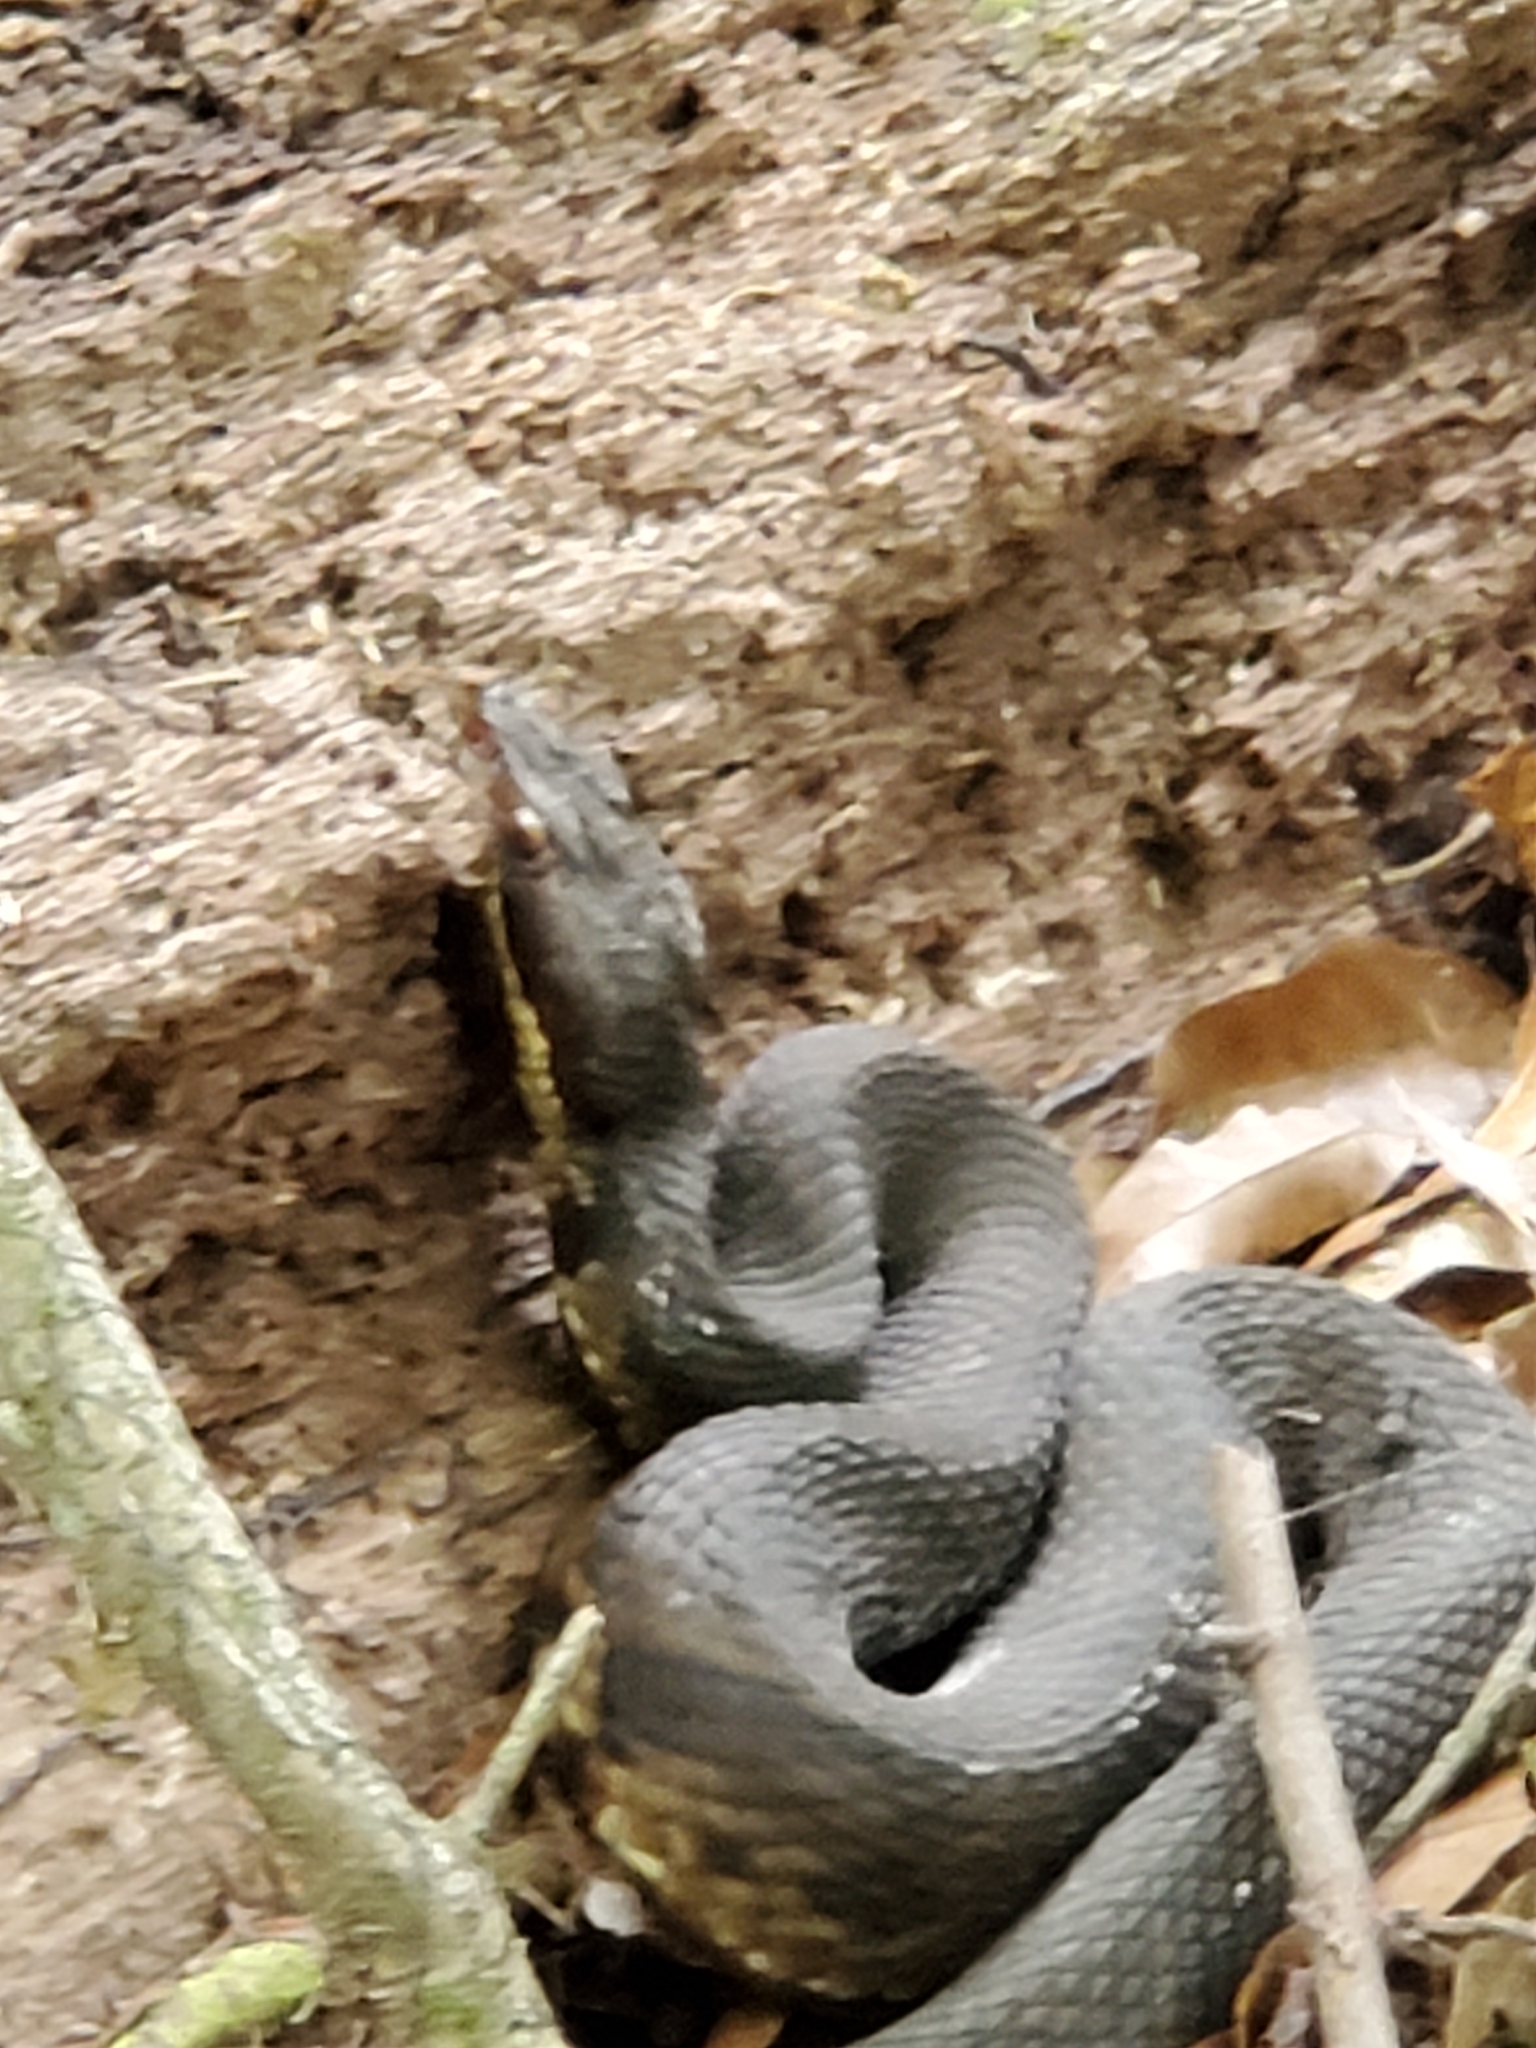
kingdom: Animalia
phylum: Chordata
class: Squamata
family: Viperidae
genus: Agkistrodon
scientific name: Agkistrodon piscivorus
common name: Cottonmouth
